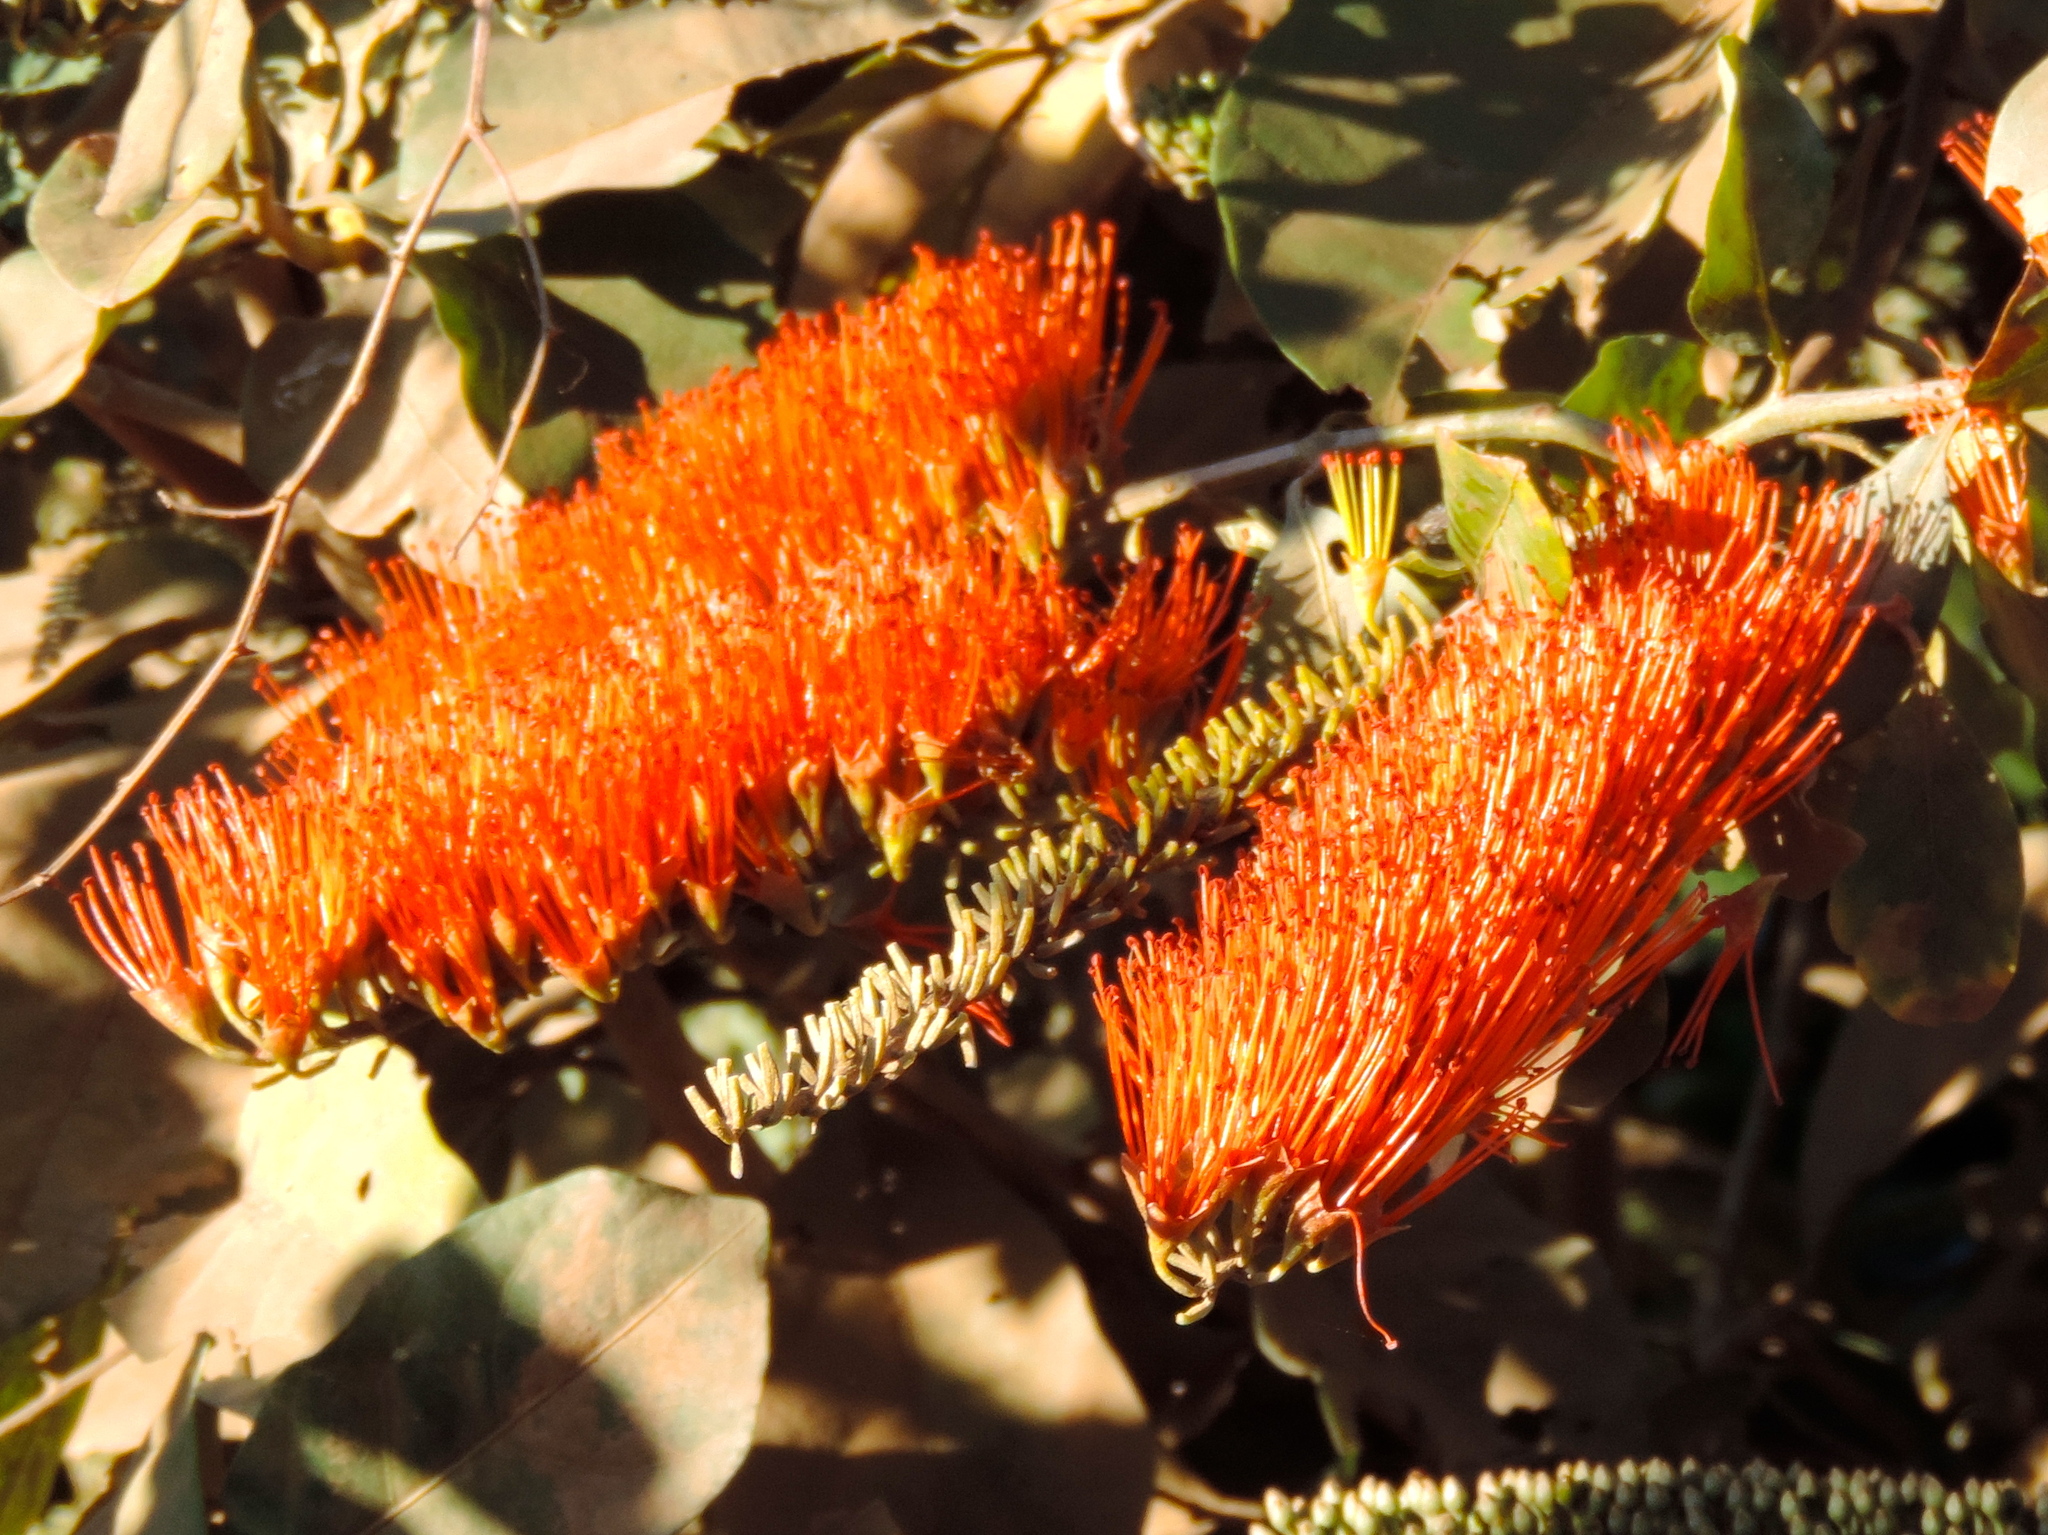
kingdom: Plantae
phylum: Tracheophyta
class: Magnoliopsida
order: Myrtales
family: Combretaceae
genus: Combretum
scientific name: Combretum farinosum
